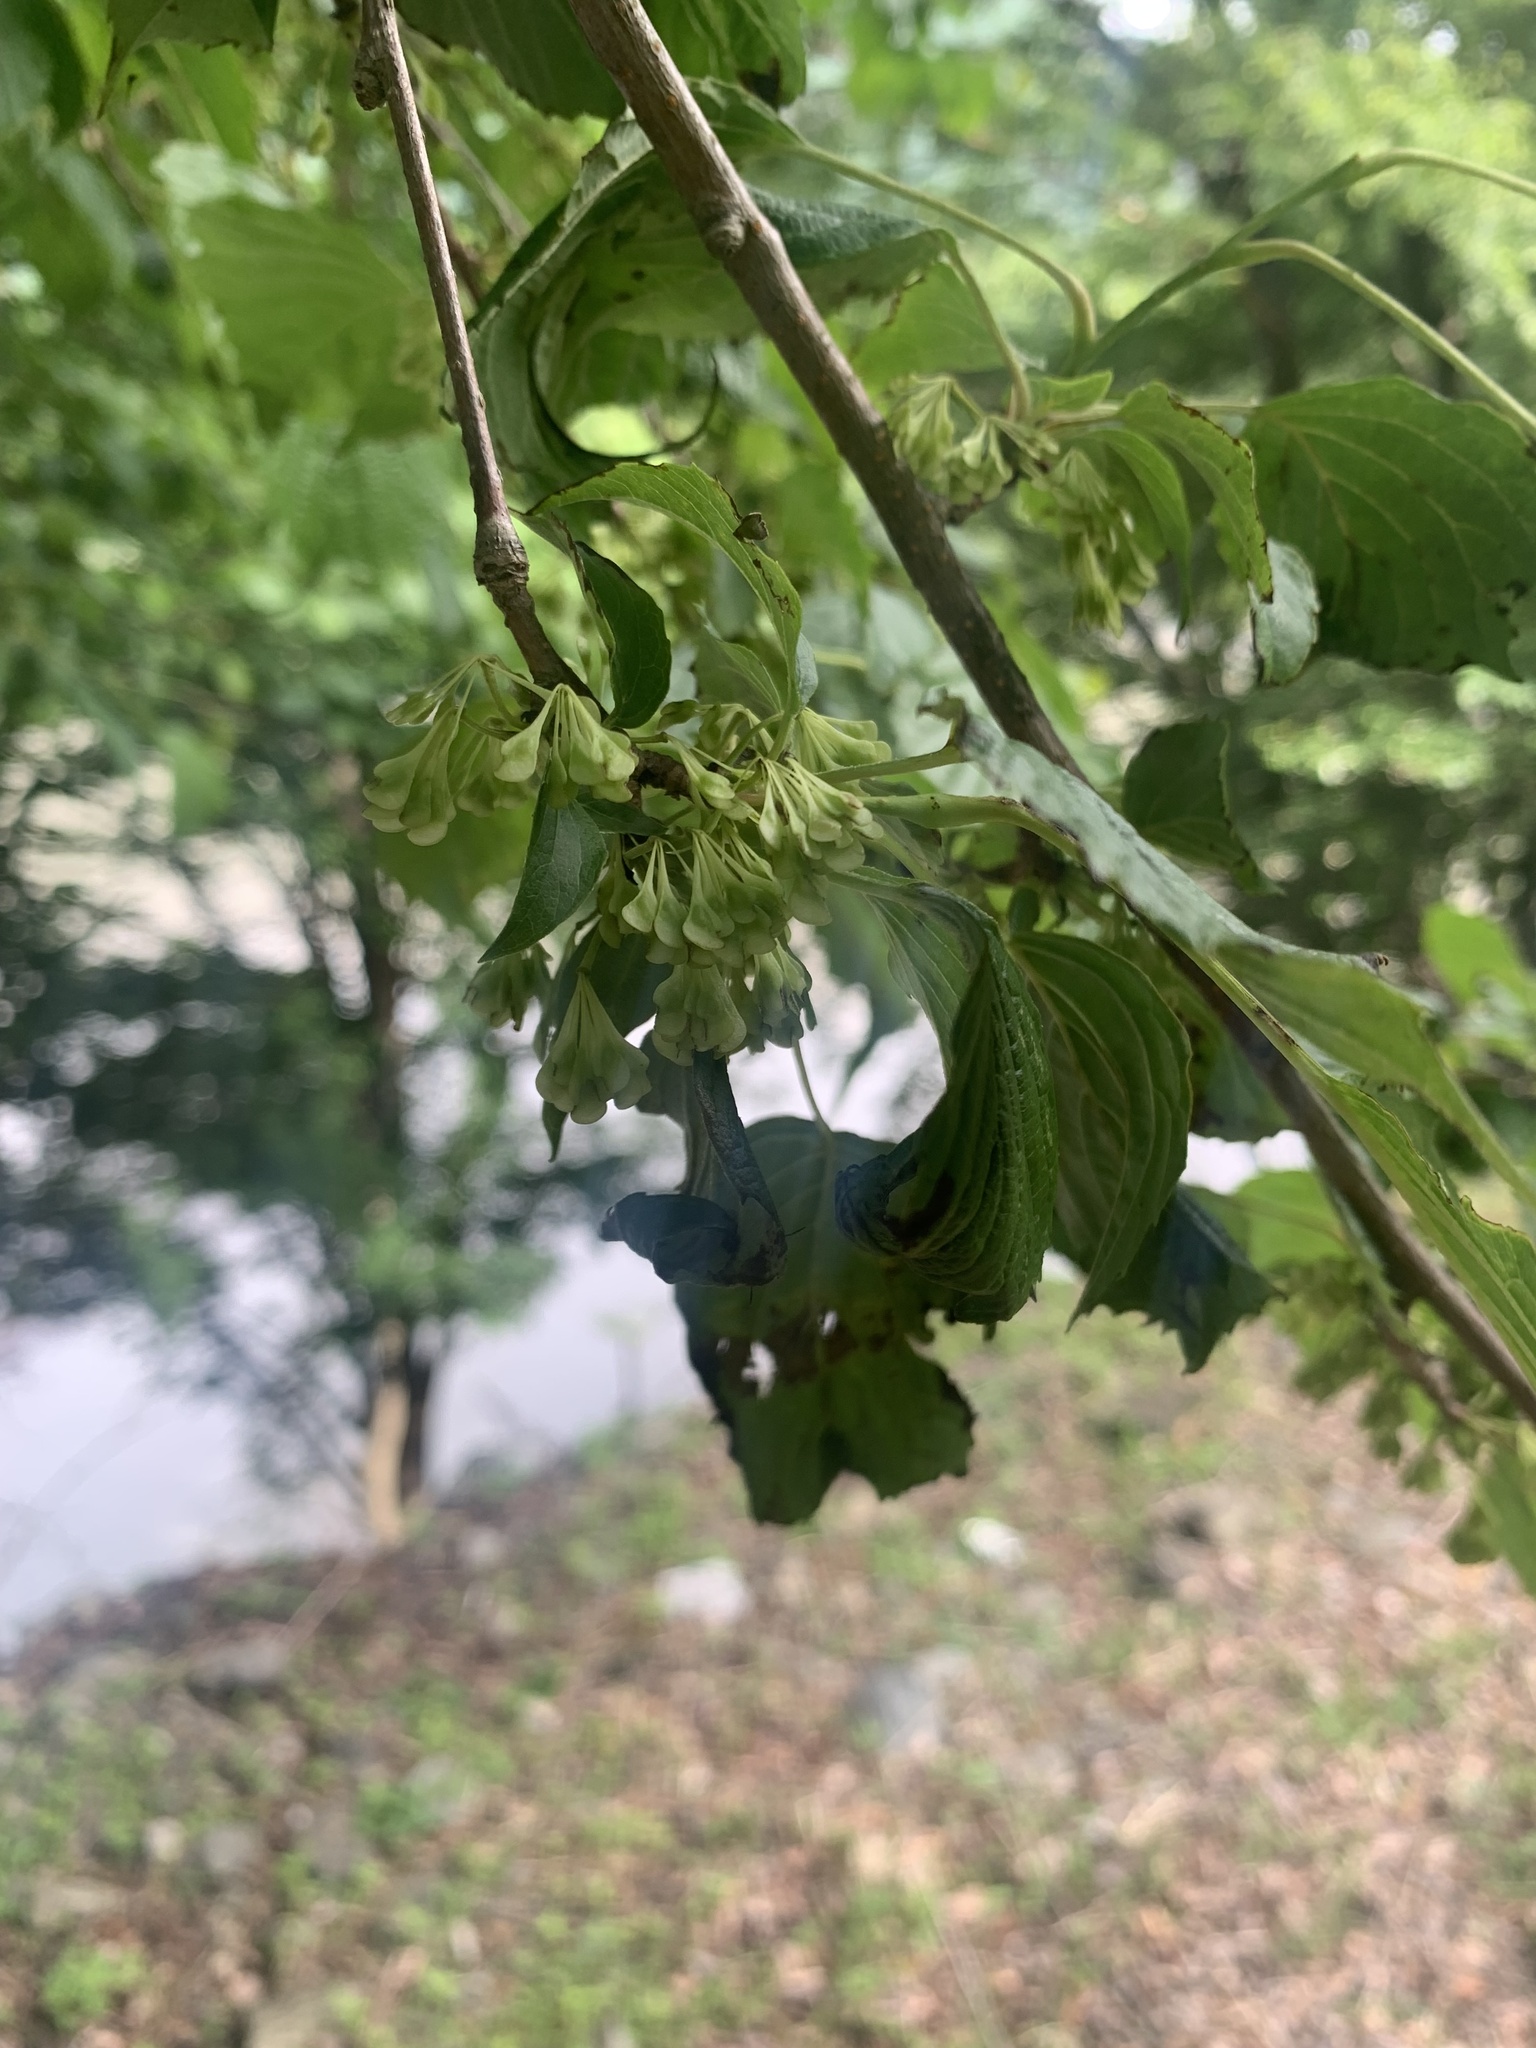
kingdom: Plantae
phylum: Tracheophyta
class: Magnoliopsida
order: Ranunculales
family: Eupteleaceae
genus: Euptelea
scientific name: Euptelea polyandra
